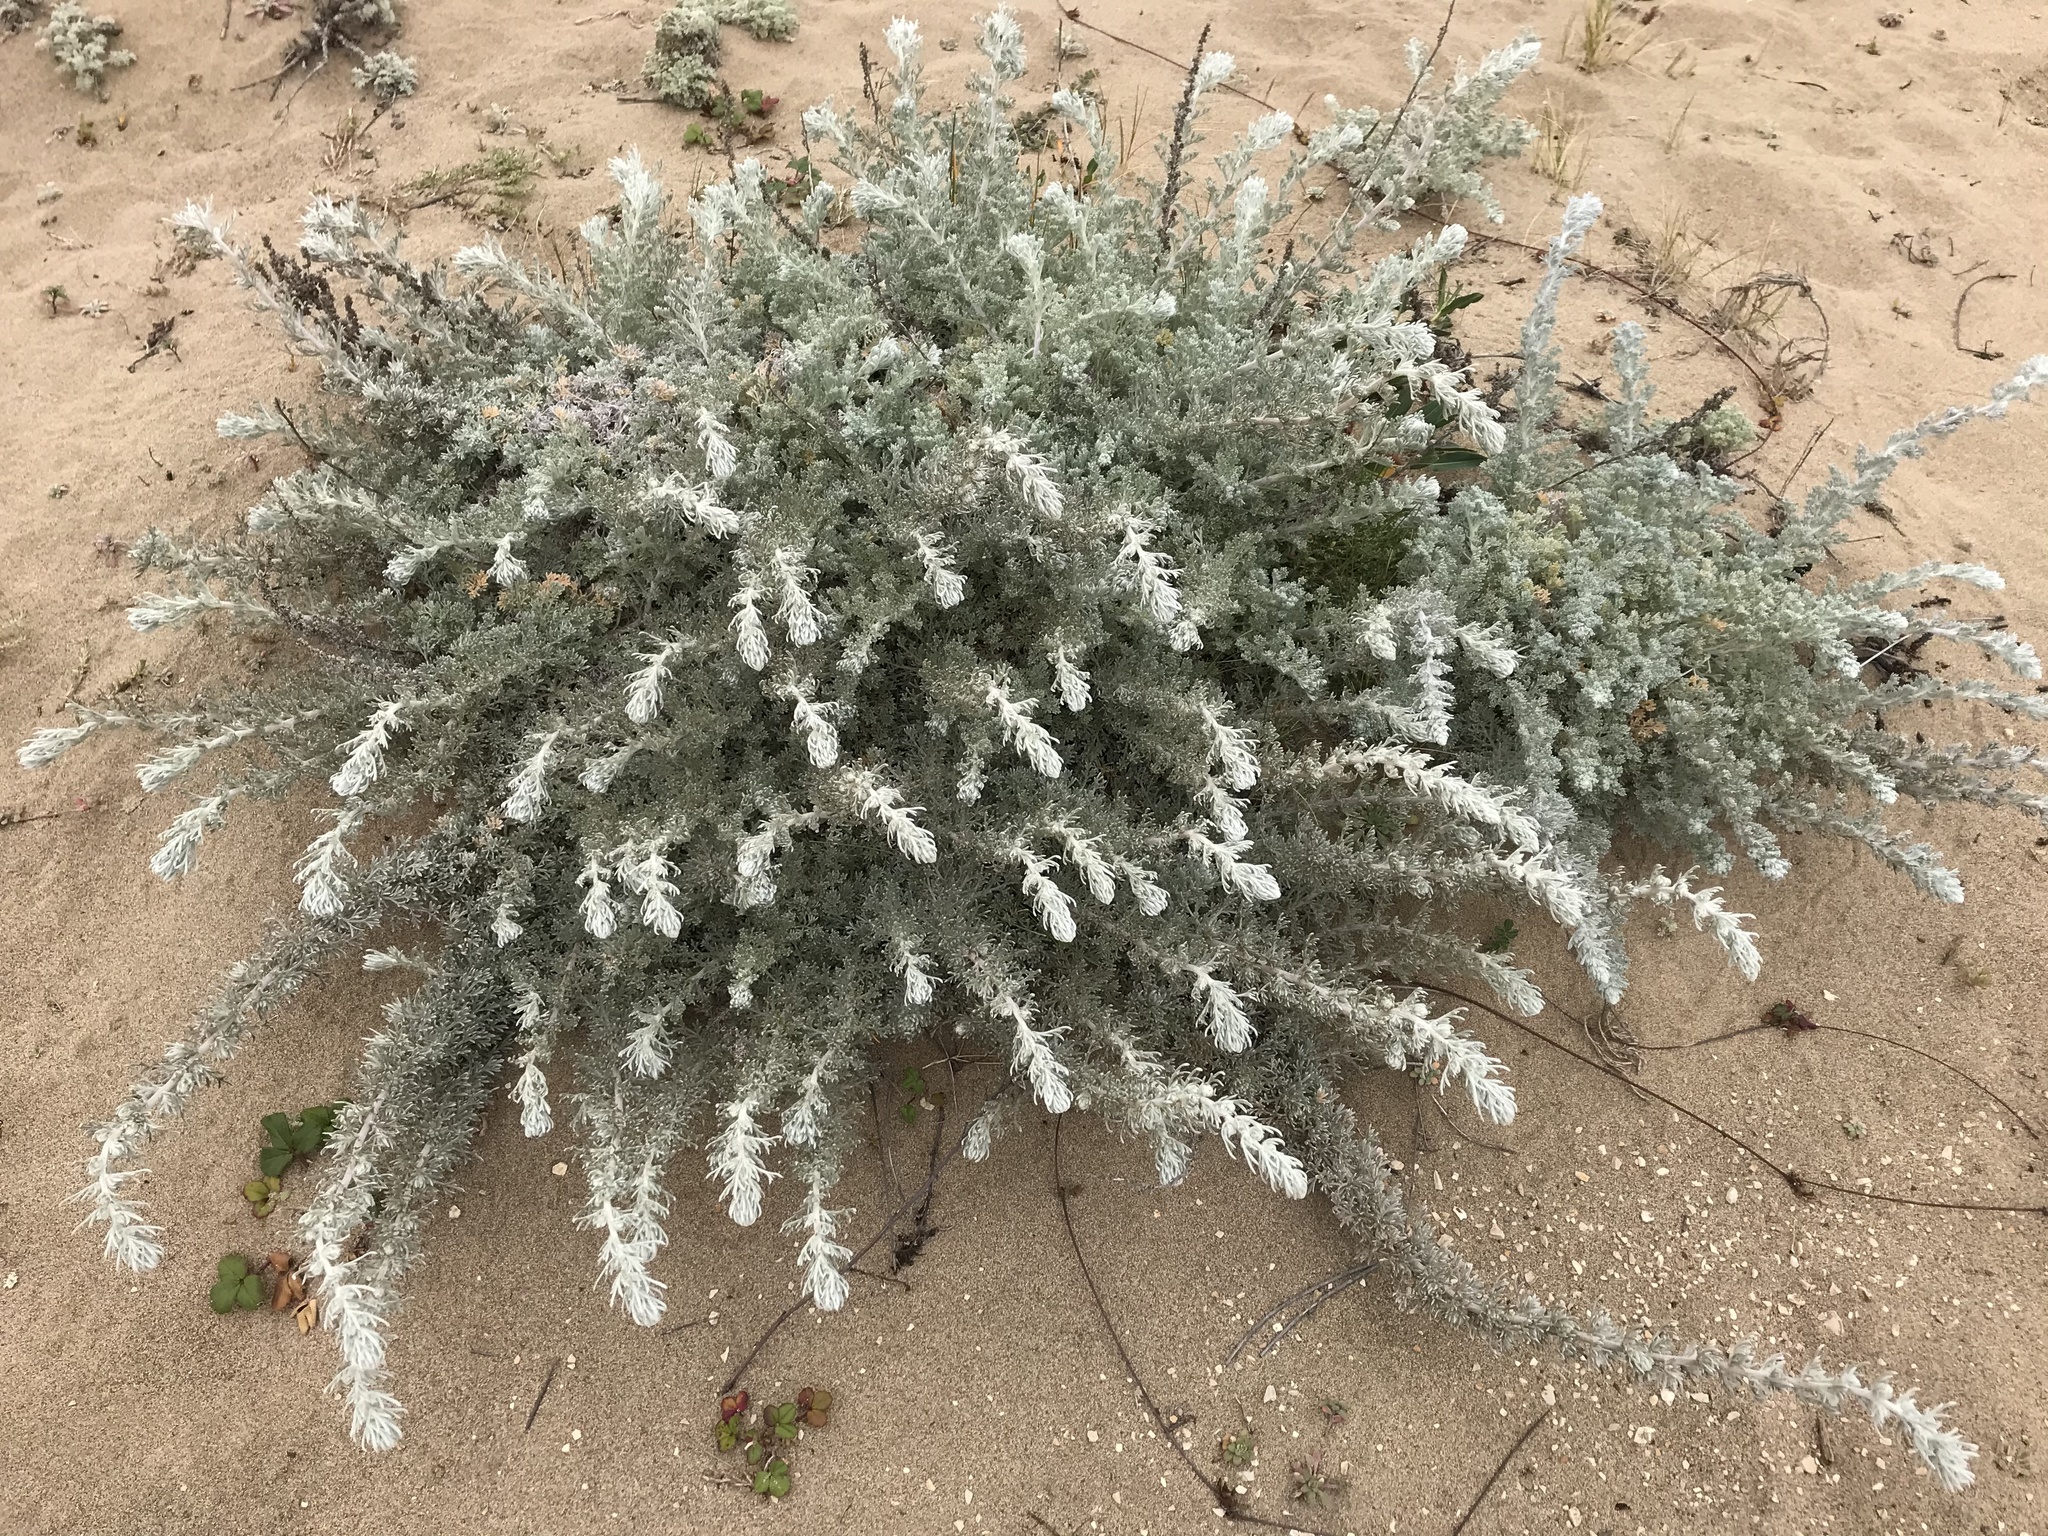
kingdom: Plantae
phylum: Tracheophyta
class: Magnoliopsida
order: Asterales
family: Asteraceae
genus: Artemisia
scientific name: Artemisia pycnocephala
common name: Coastal sagewort
